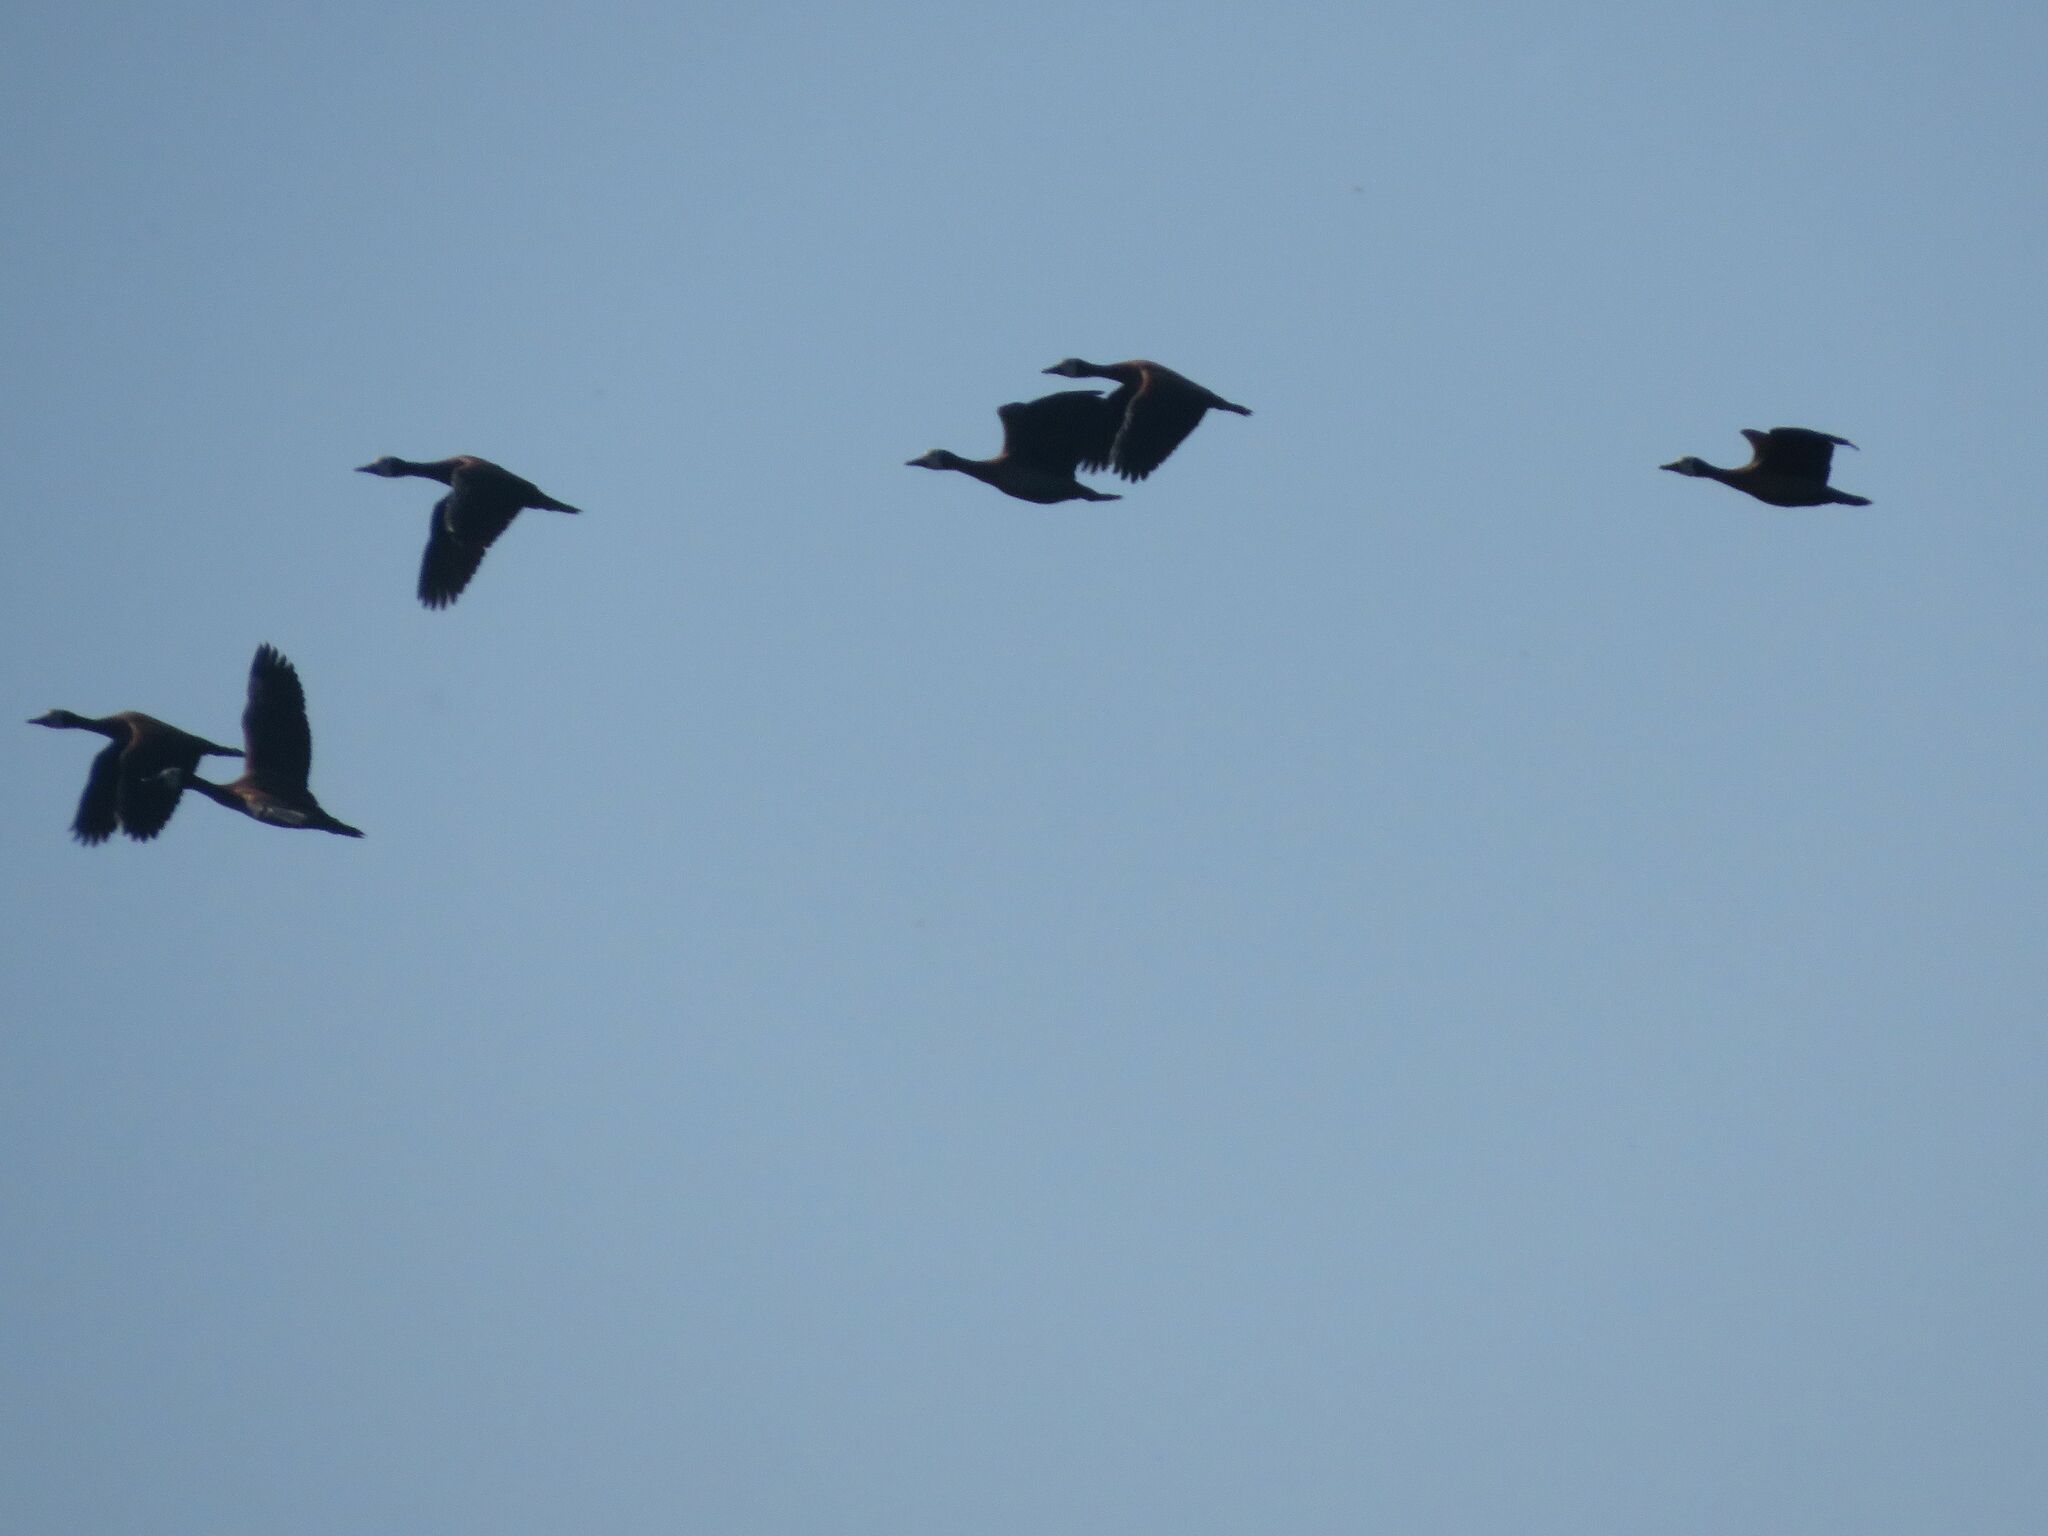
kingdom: Animalia
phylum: Chordata
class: Aves
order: Anseriformes
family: Anatidae
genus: Dendrocygna
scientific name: Dendrocygna viduata
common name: White-faced whistling duck
